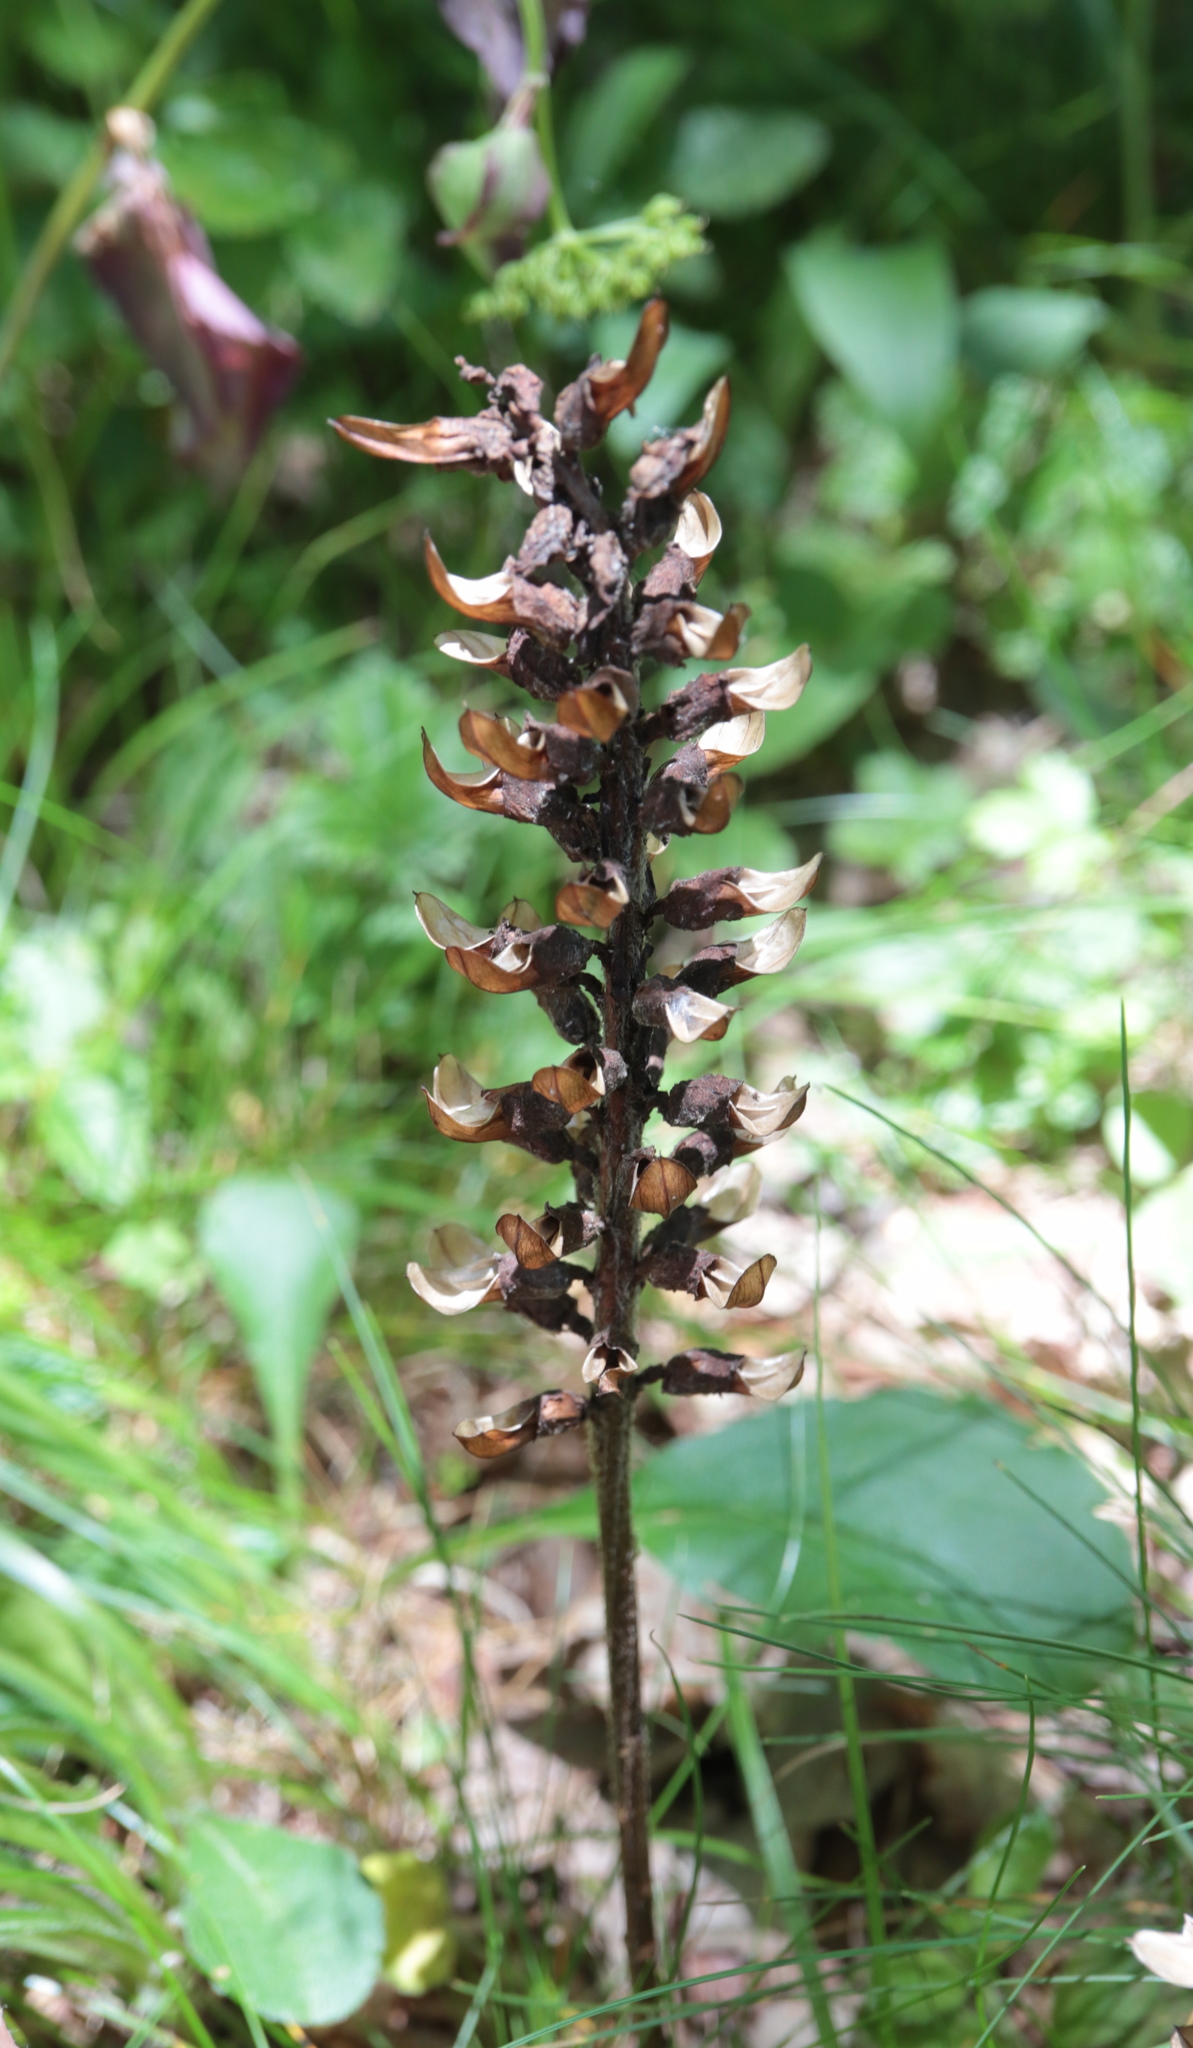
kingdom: Plantae
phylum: Tracheophyta
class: Magnoliopsida
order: Lamiales
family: Orobanchaceae
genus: Pedicularis
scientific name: Pedicularis canadensis
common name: Early lousewort
